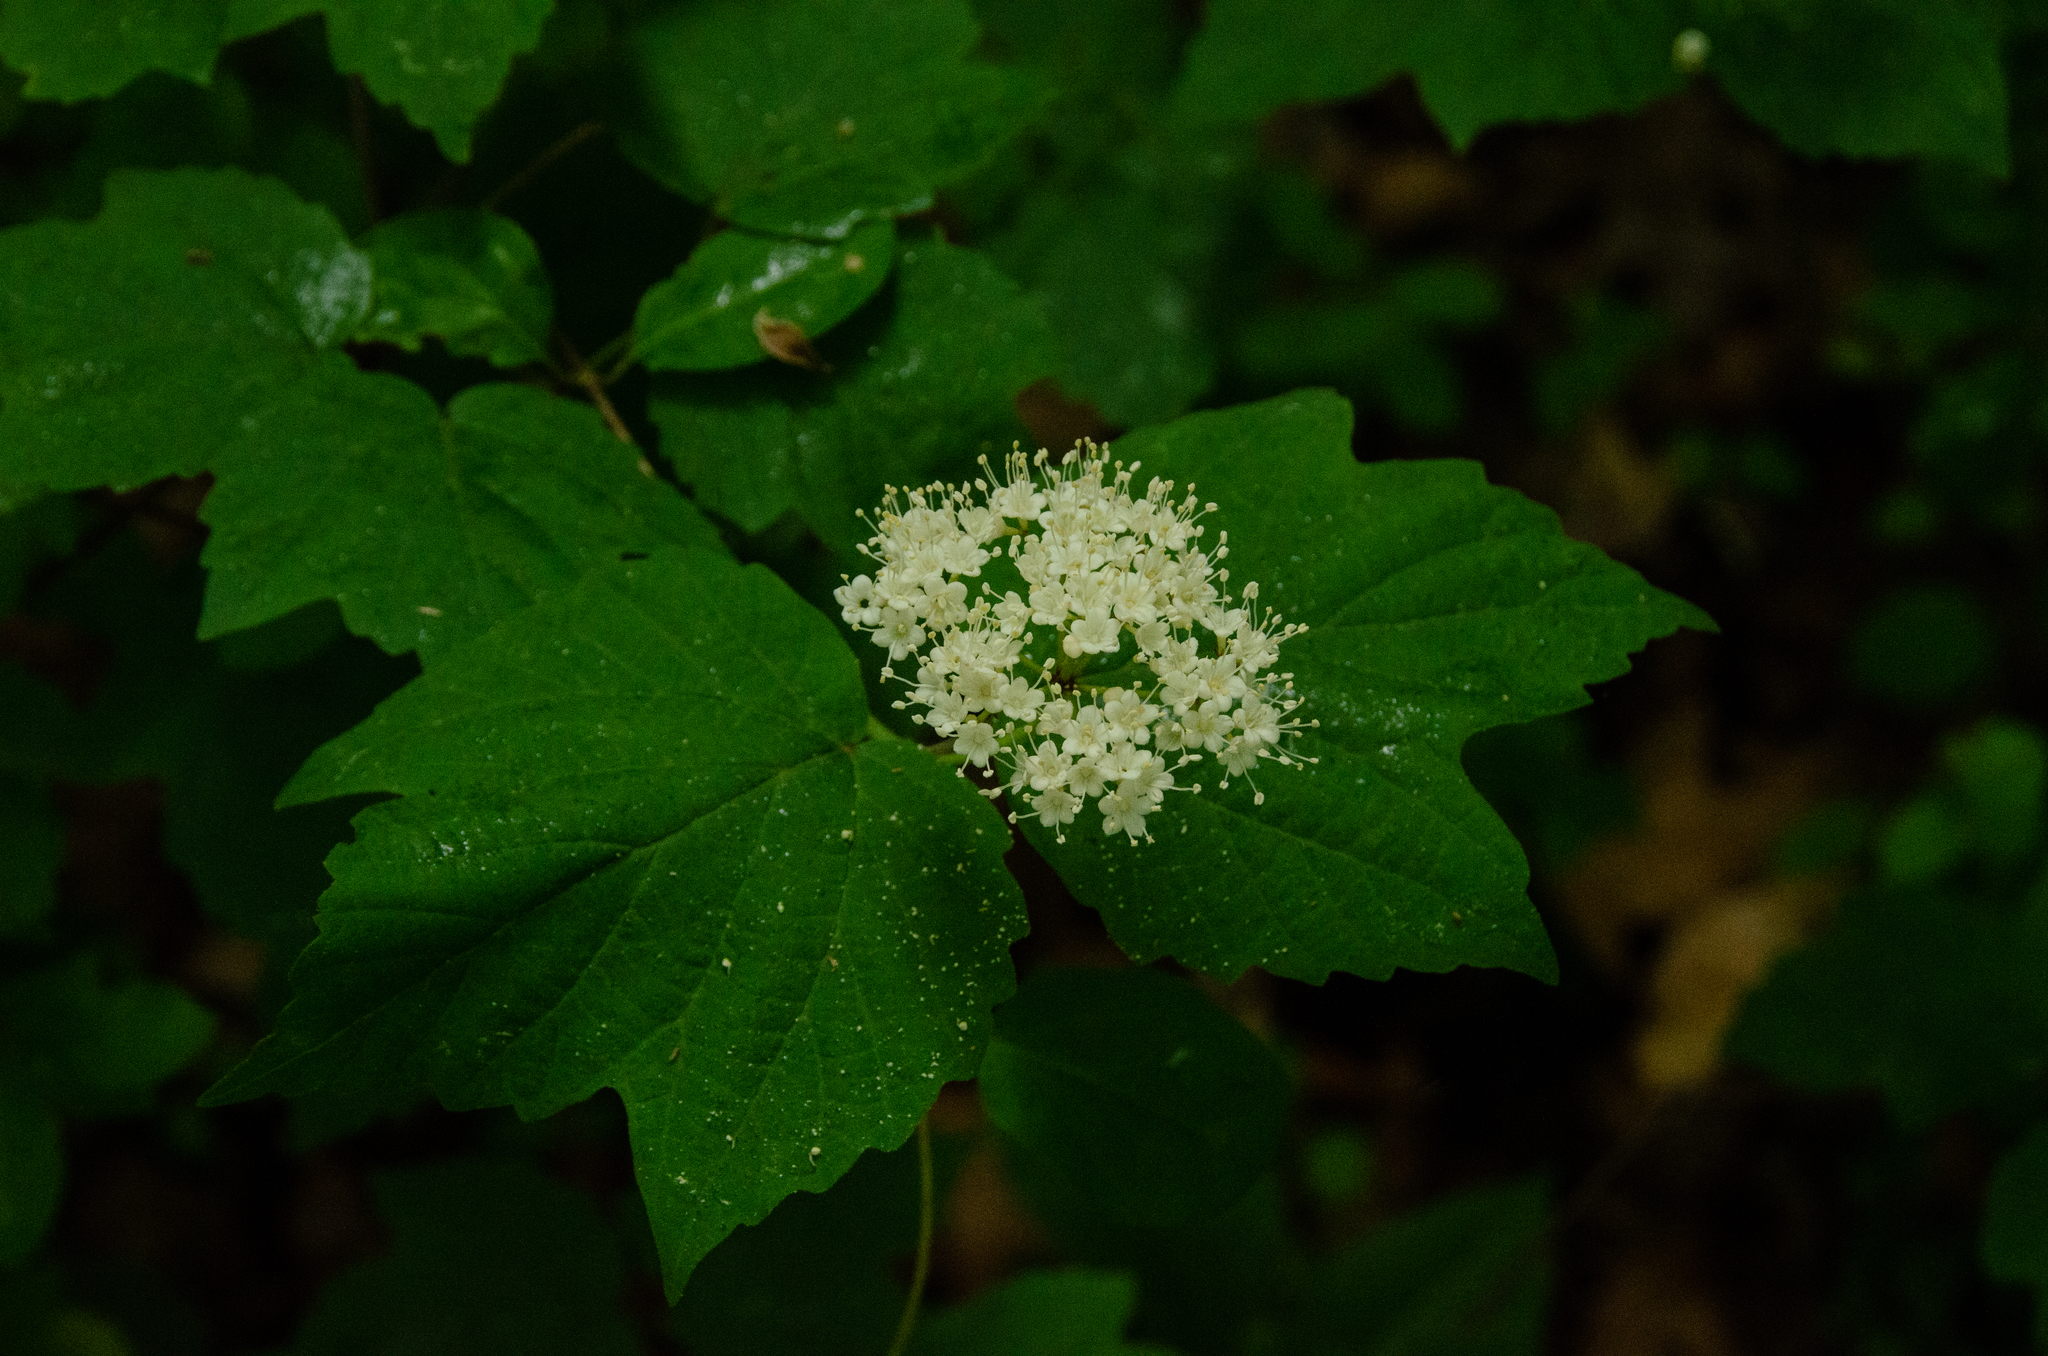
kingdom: Plantae
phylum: Tracheophyta
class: Magnoliopsida
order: Dipsacales
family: Viburnaceae
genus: Viburnum
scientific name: Viburnum acerifolium
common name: Dockmackie
